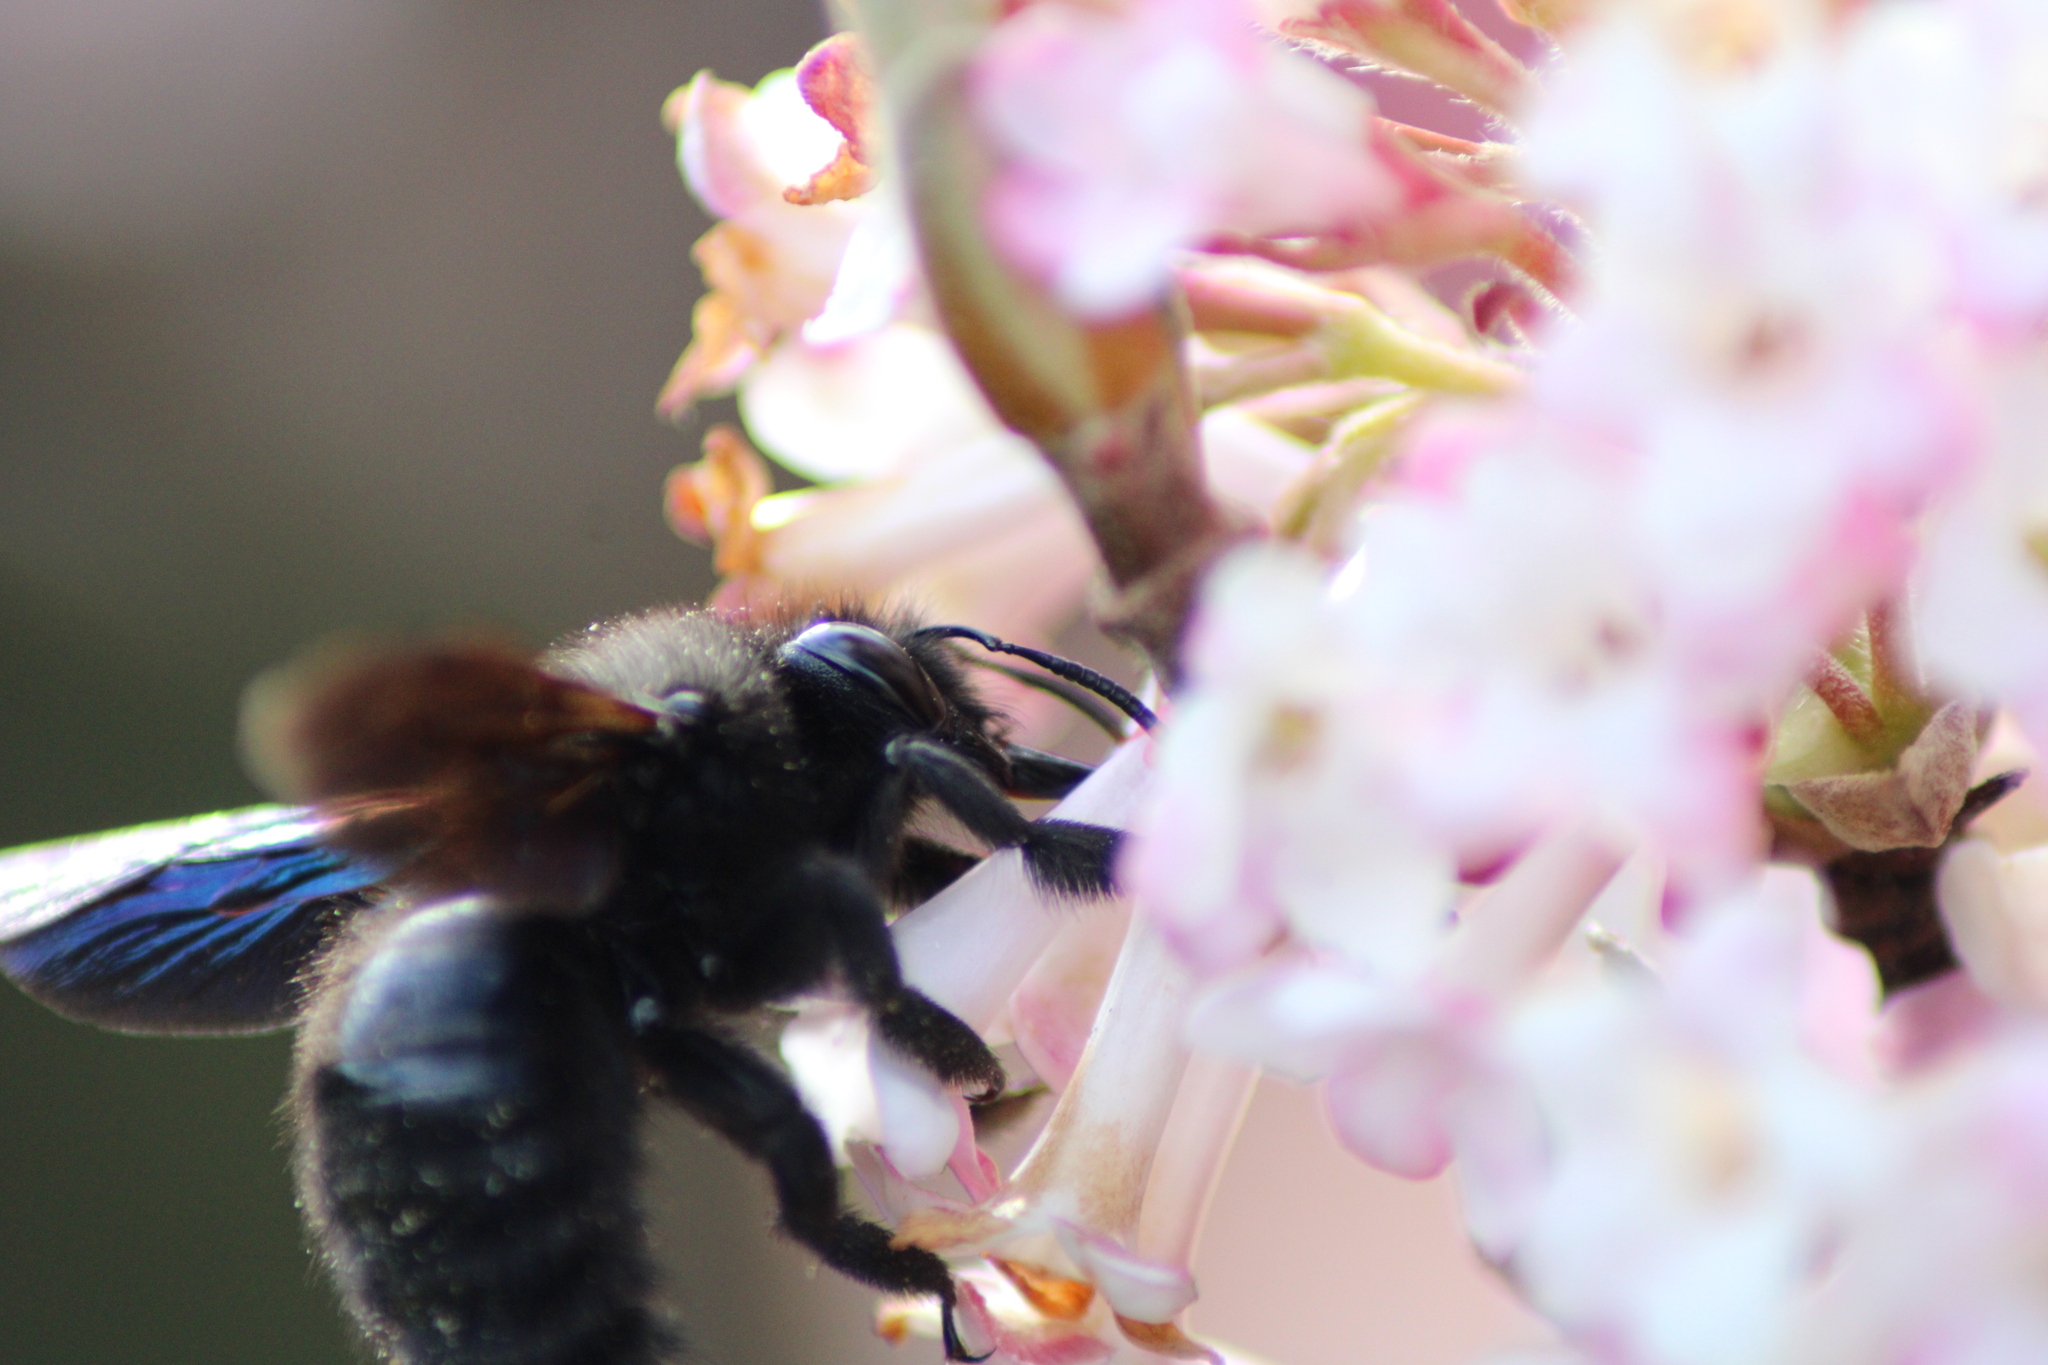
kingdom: Animalia
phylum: Arthropoda
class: Insecta
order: Hymenoptera
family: Apidae
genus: Xylocopa
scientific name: Xylocopa violacea
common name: Violet carpenter bee
